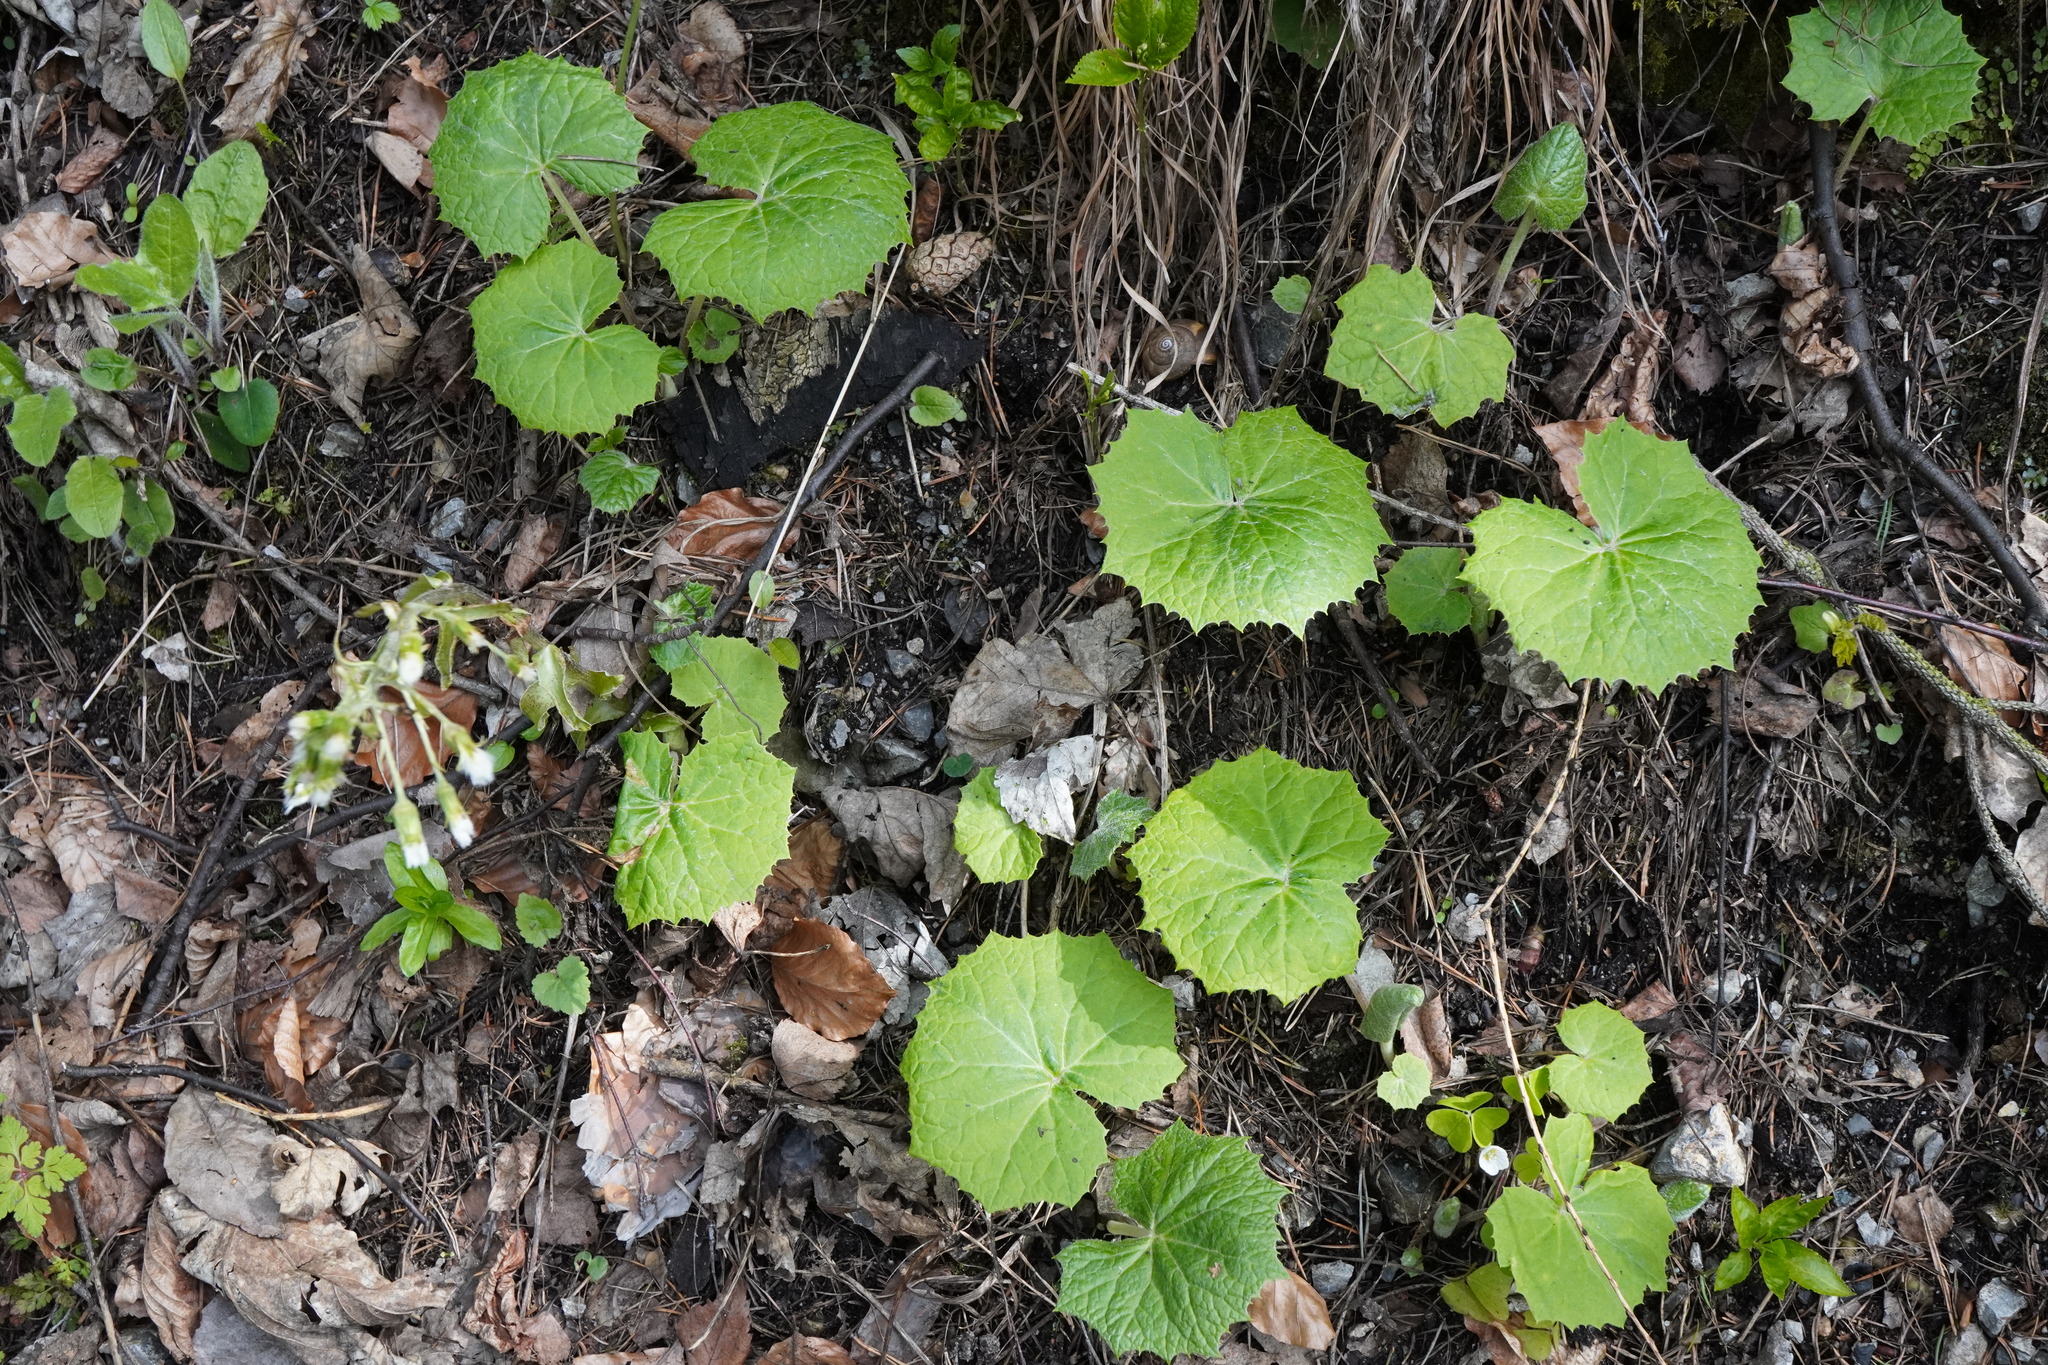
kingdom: Plantae
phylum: Tracheophyta
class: Magnoliopsida
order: Asterales
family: Asteraceae
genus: Petasites
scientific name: Petasites albus
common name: White butterbur
